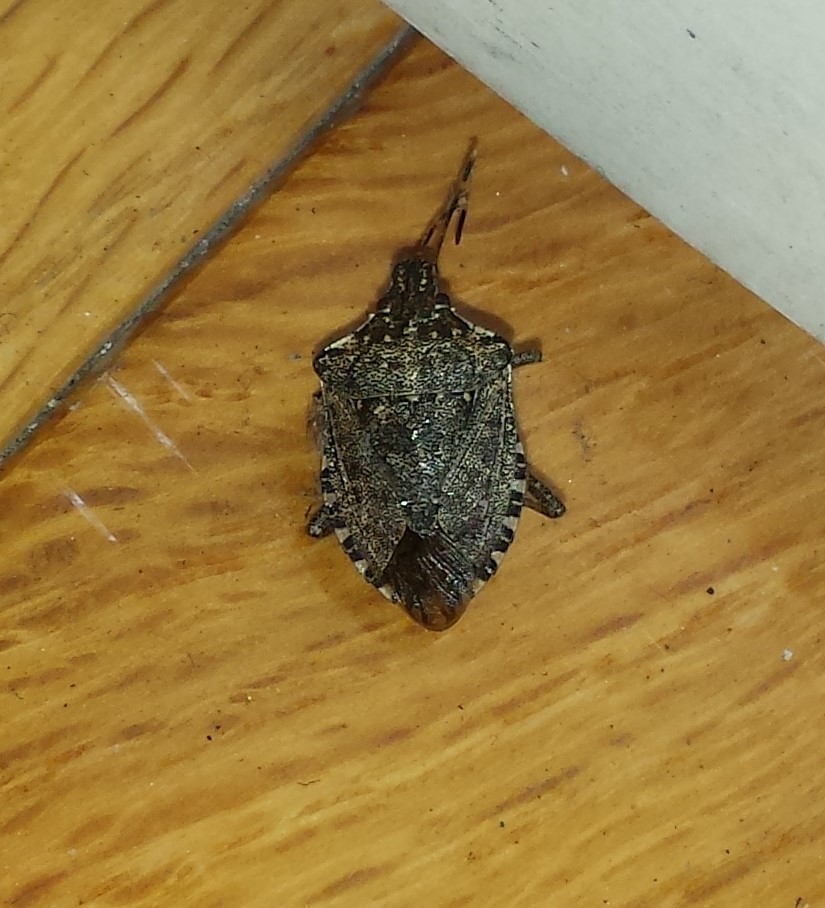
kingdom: Animalia
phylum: Arthropoda
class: Insecta
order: Hemiptera
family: Pentatomidae
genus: Halyomorpha
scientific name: Halyomorpha halys
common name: Brown marmorated stink bug
